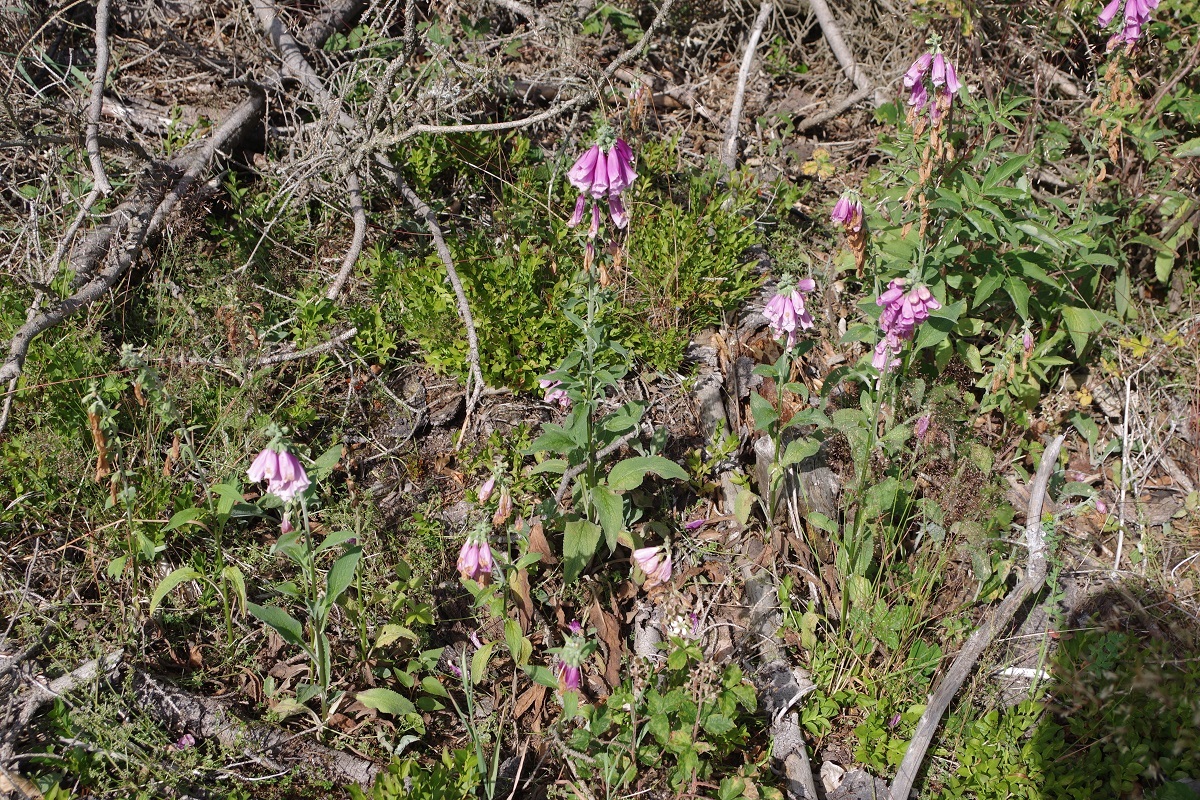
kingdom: Plantae
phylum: Tracheophyta
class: Magnoliopsida
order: Lamiales
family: Plantaginaceae
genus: Digitalis
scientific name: Digitalis purpurea
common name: Foxglove
